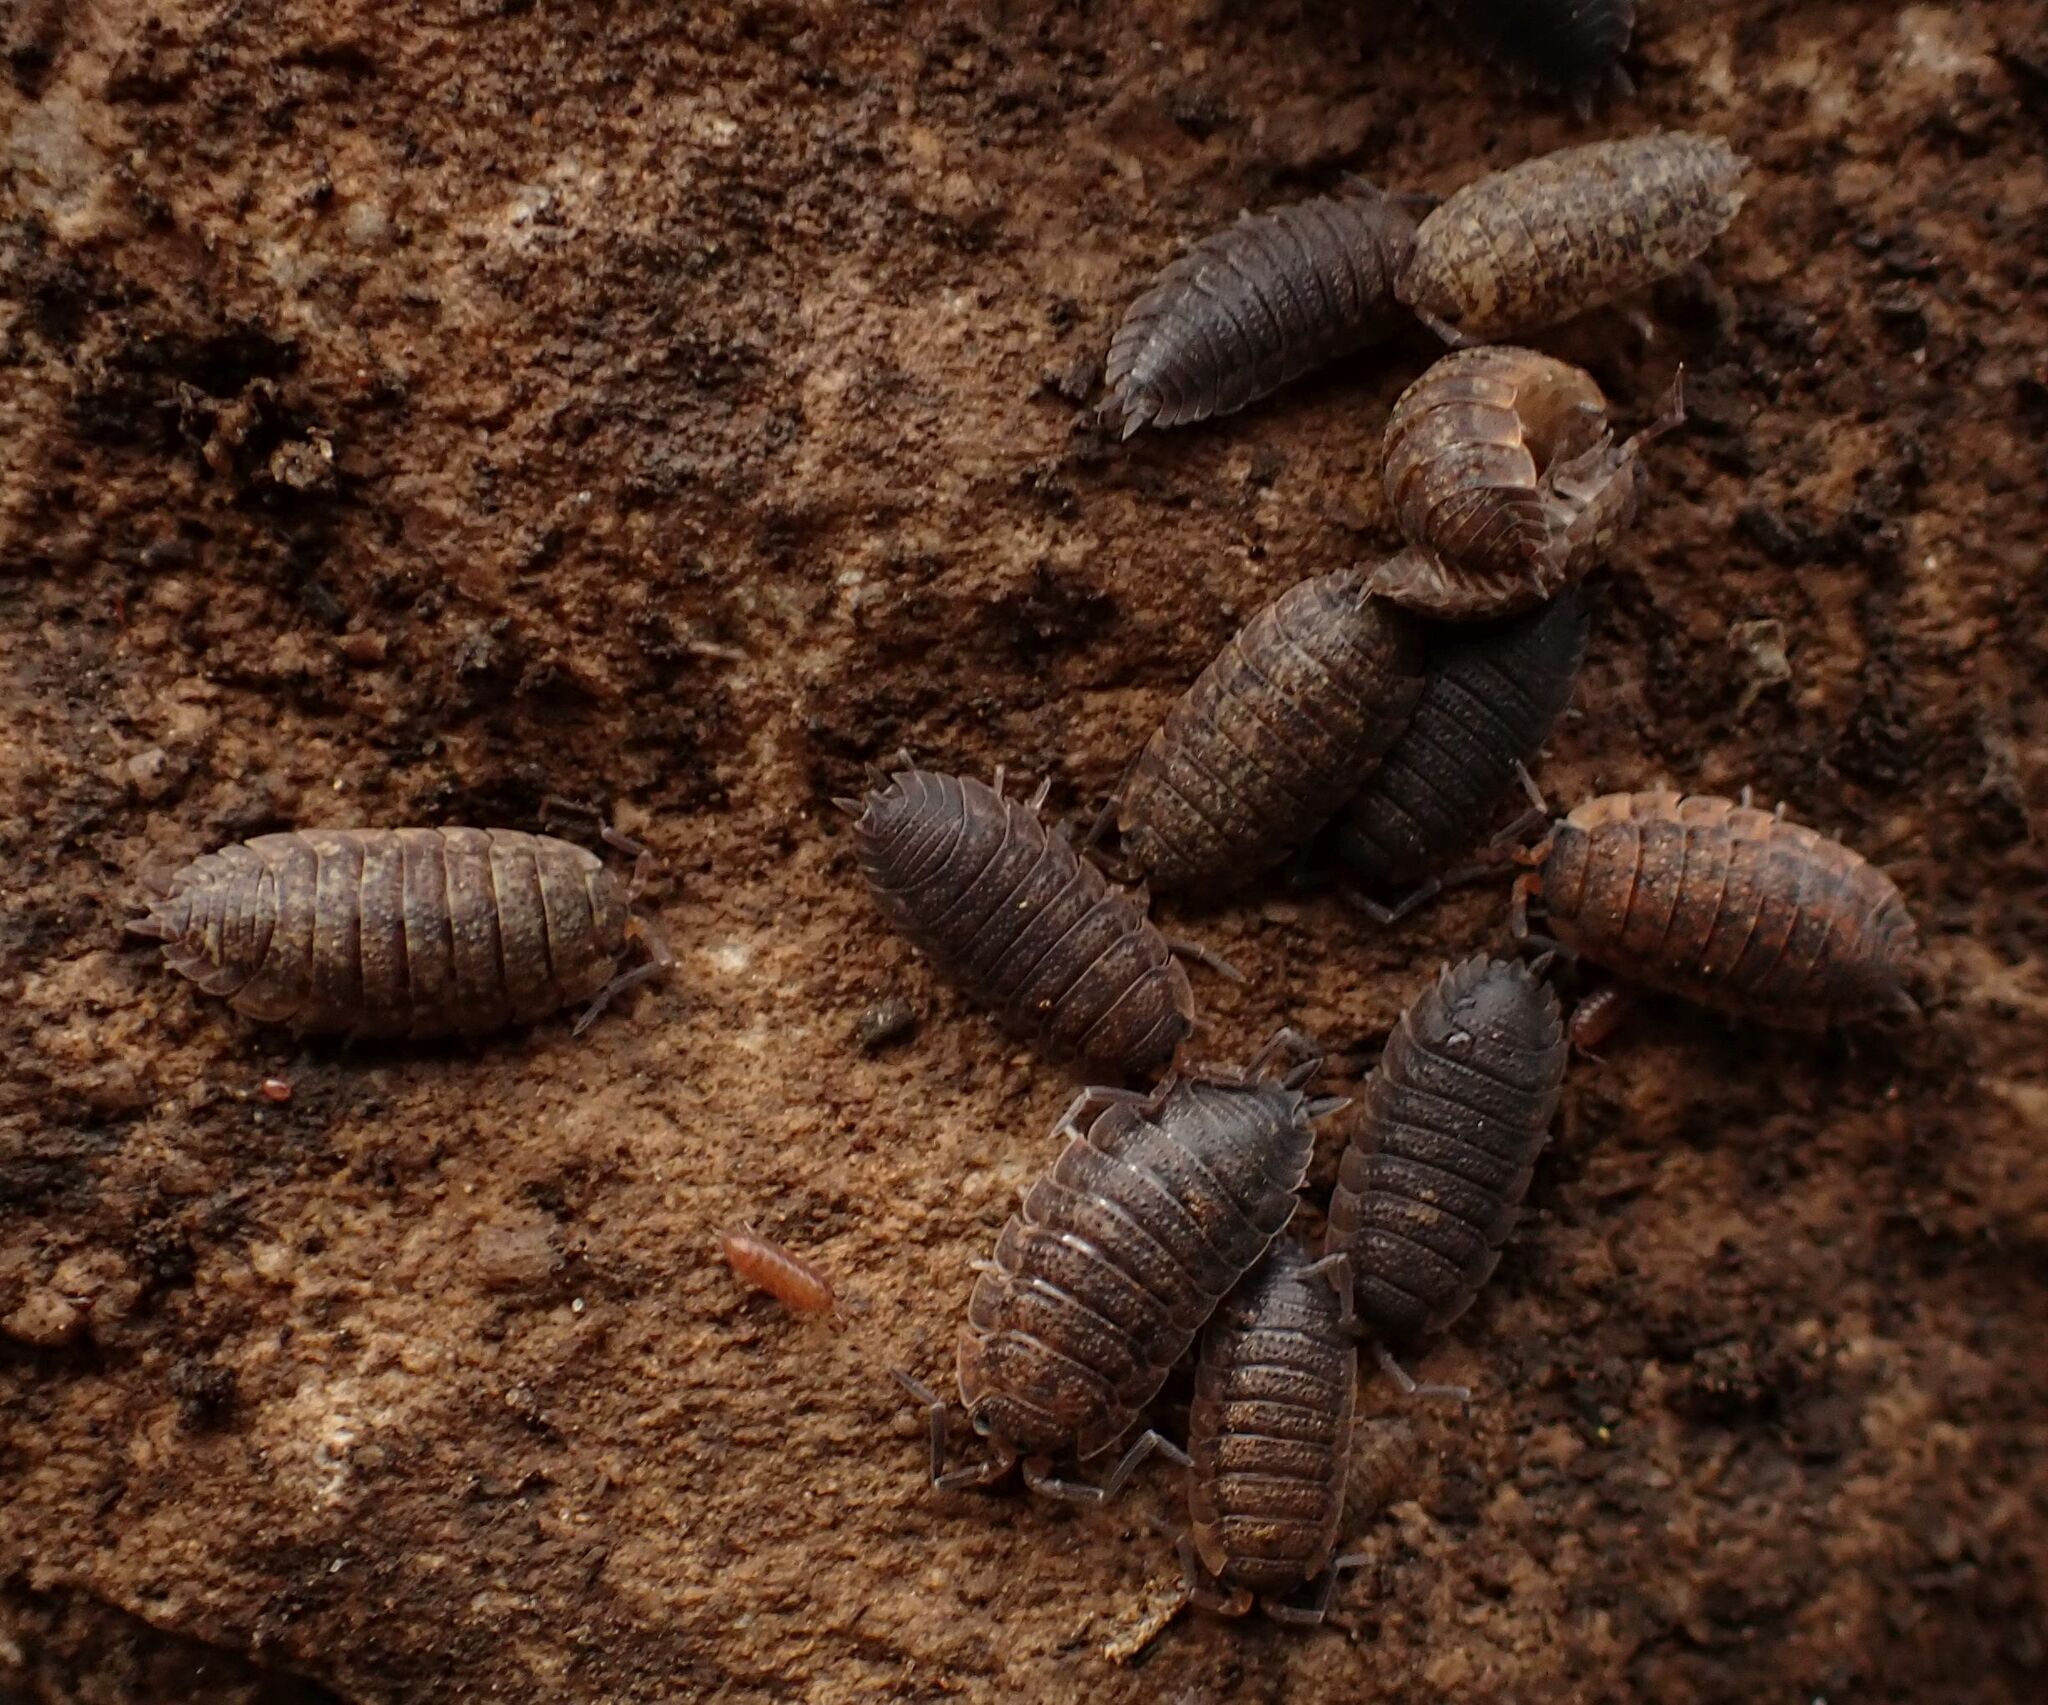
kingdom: Animalia
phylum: Arthropoda
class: Malacostraca
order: Isopoda
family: Porcellionidae
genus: Porcellio
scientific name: Porcellio scaber
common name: Common rough woodlouse
